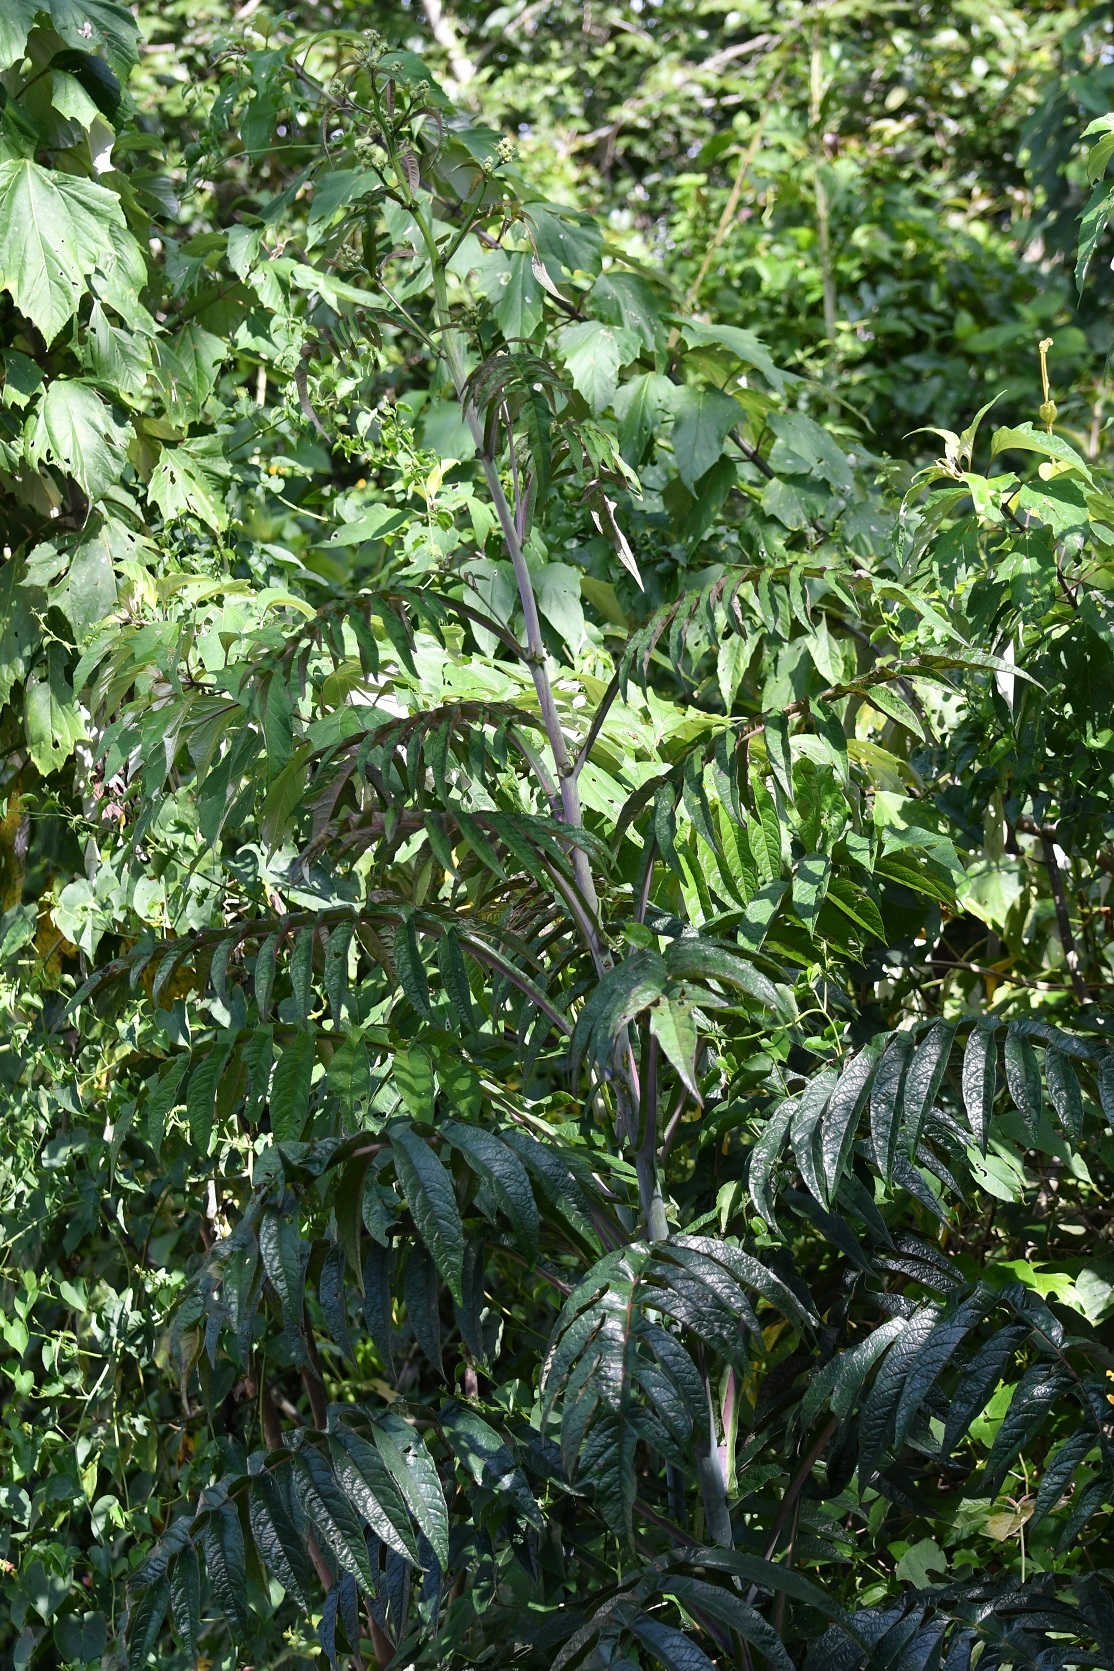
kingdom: Plantae
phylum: Tracheophyta
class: Magnoliopsida
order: Asterales
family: Asteraceae
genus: Verbesina
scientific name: Verbesina gigantea
